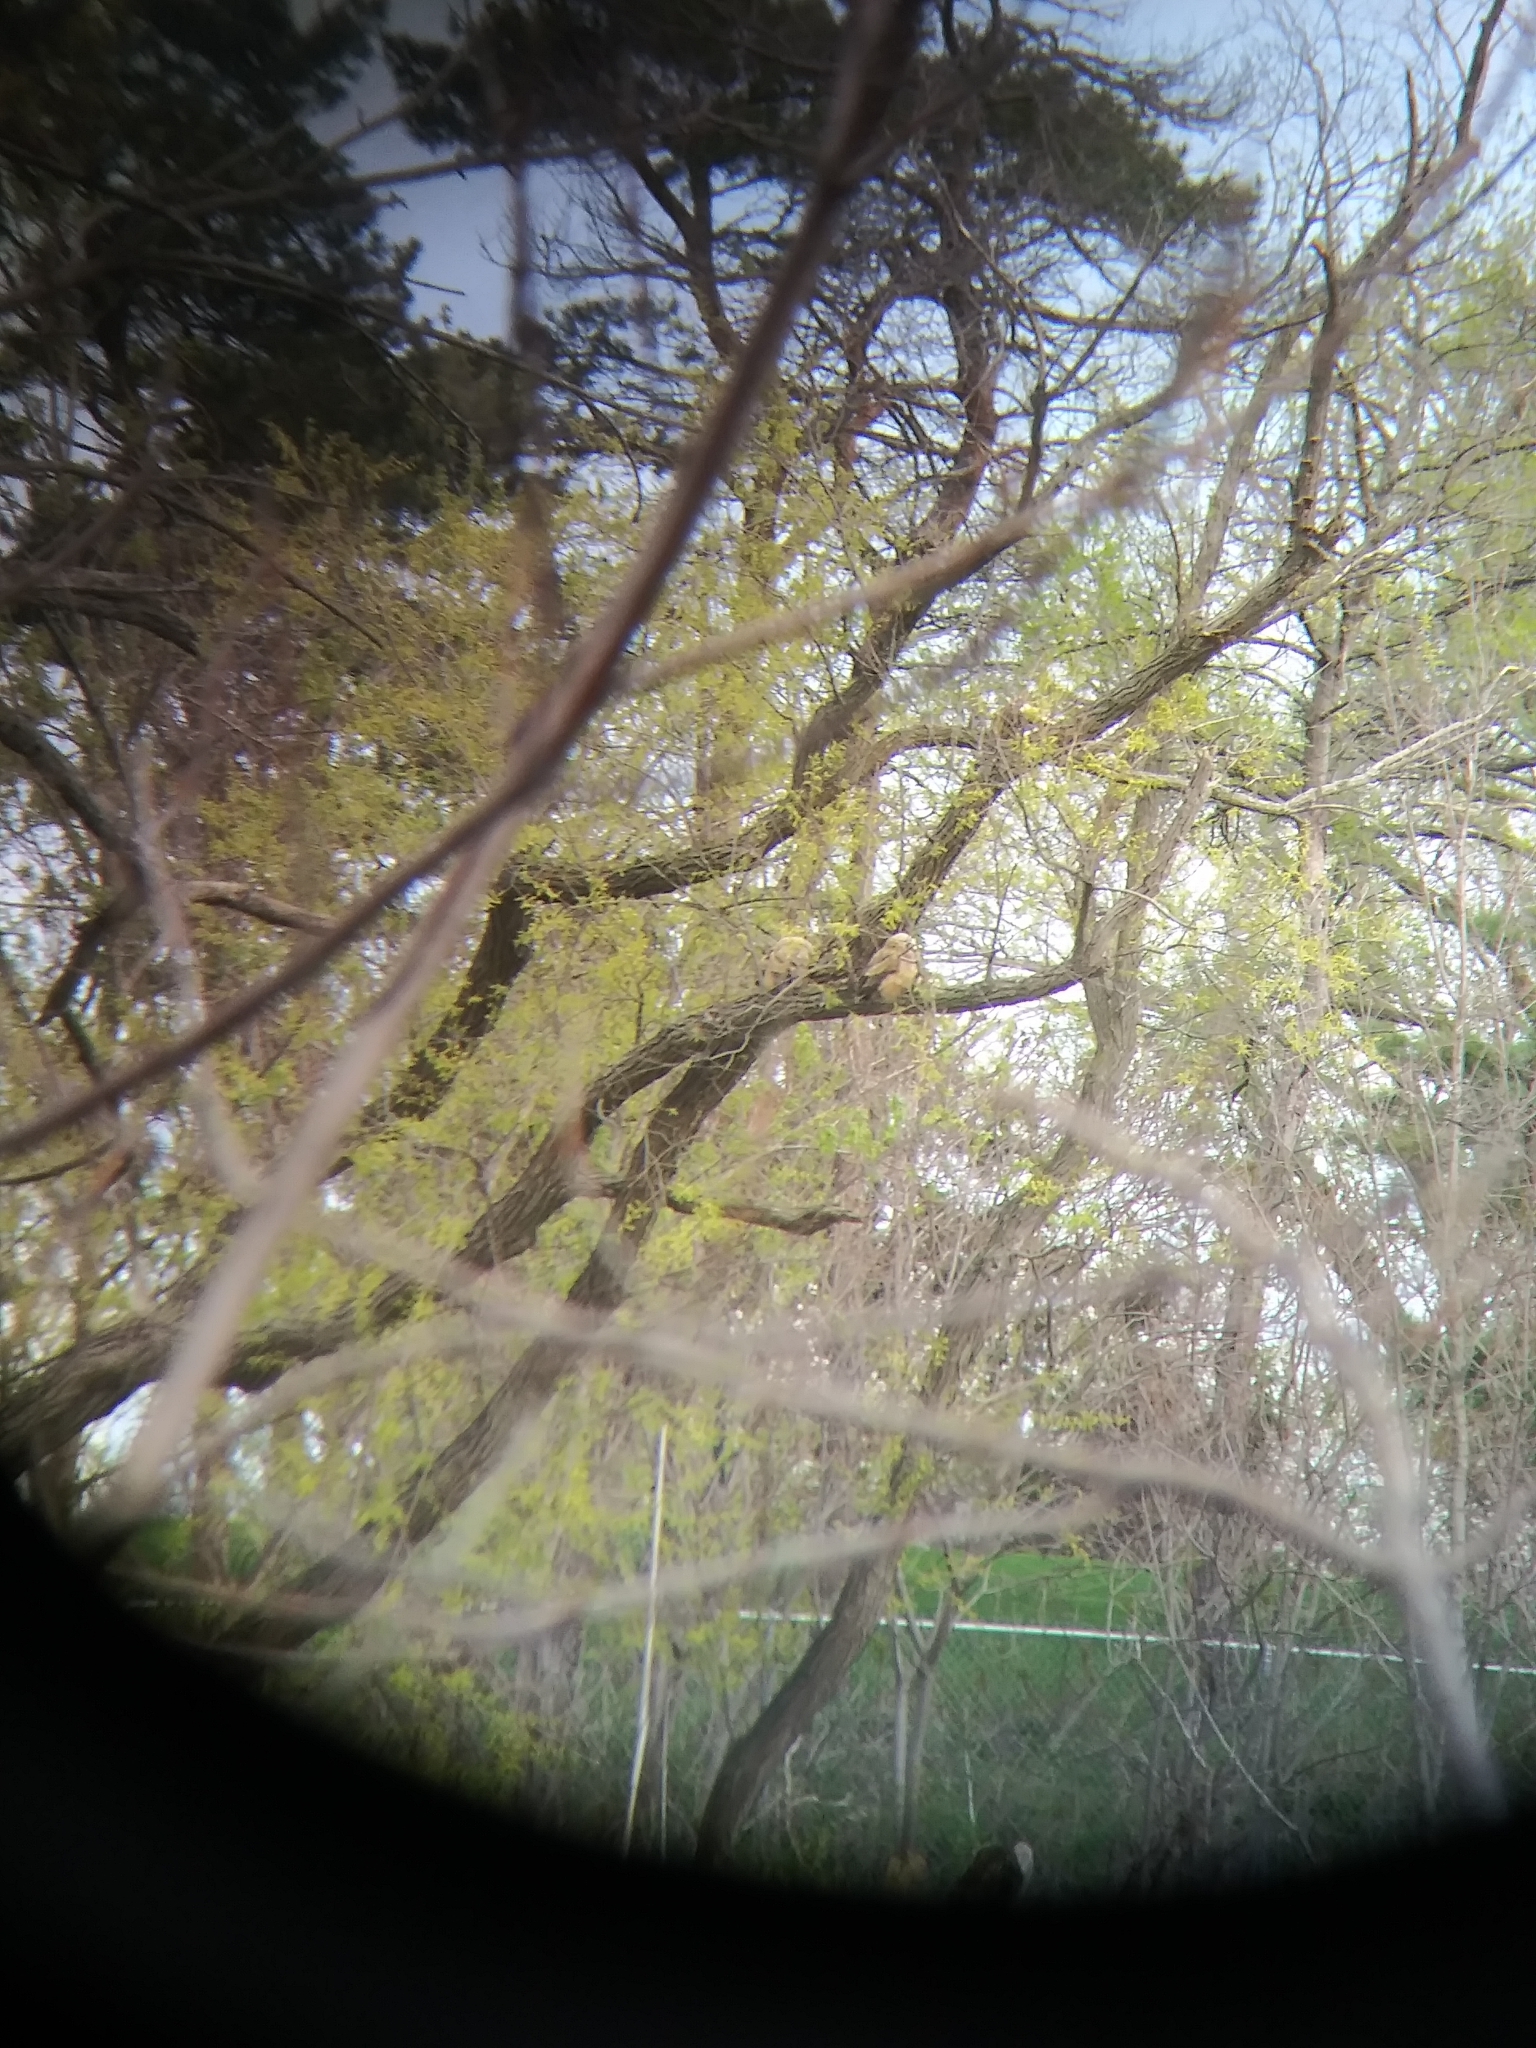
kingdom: Animalia
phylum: Chordata
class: Aves
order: Strigiformes
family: Strigidae
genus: Bubo
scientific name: Bubo virginianus
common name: Great horned owl
